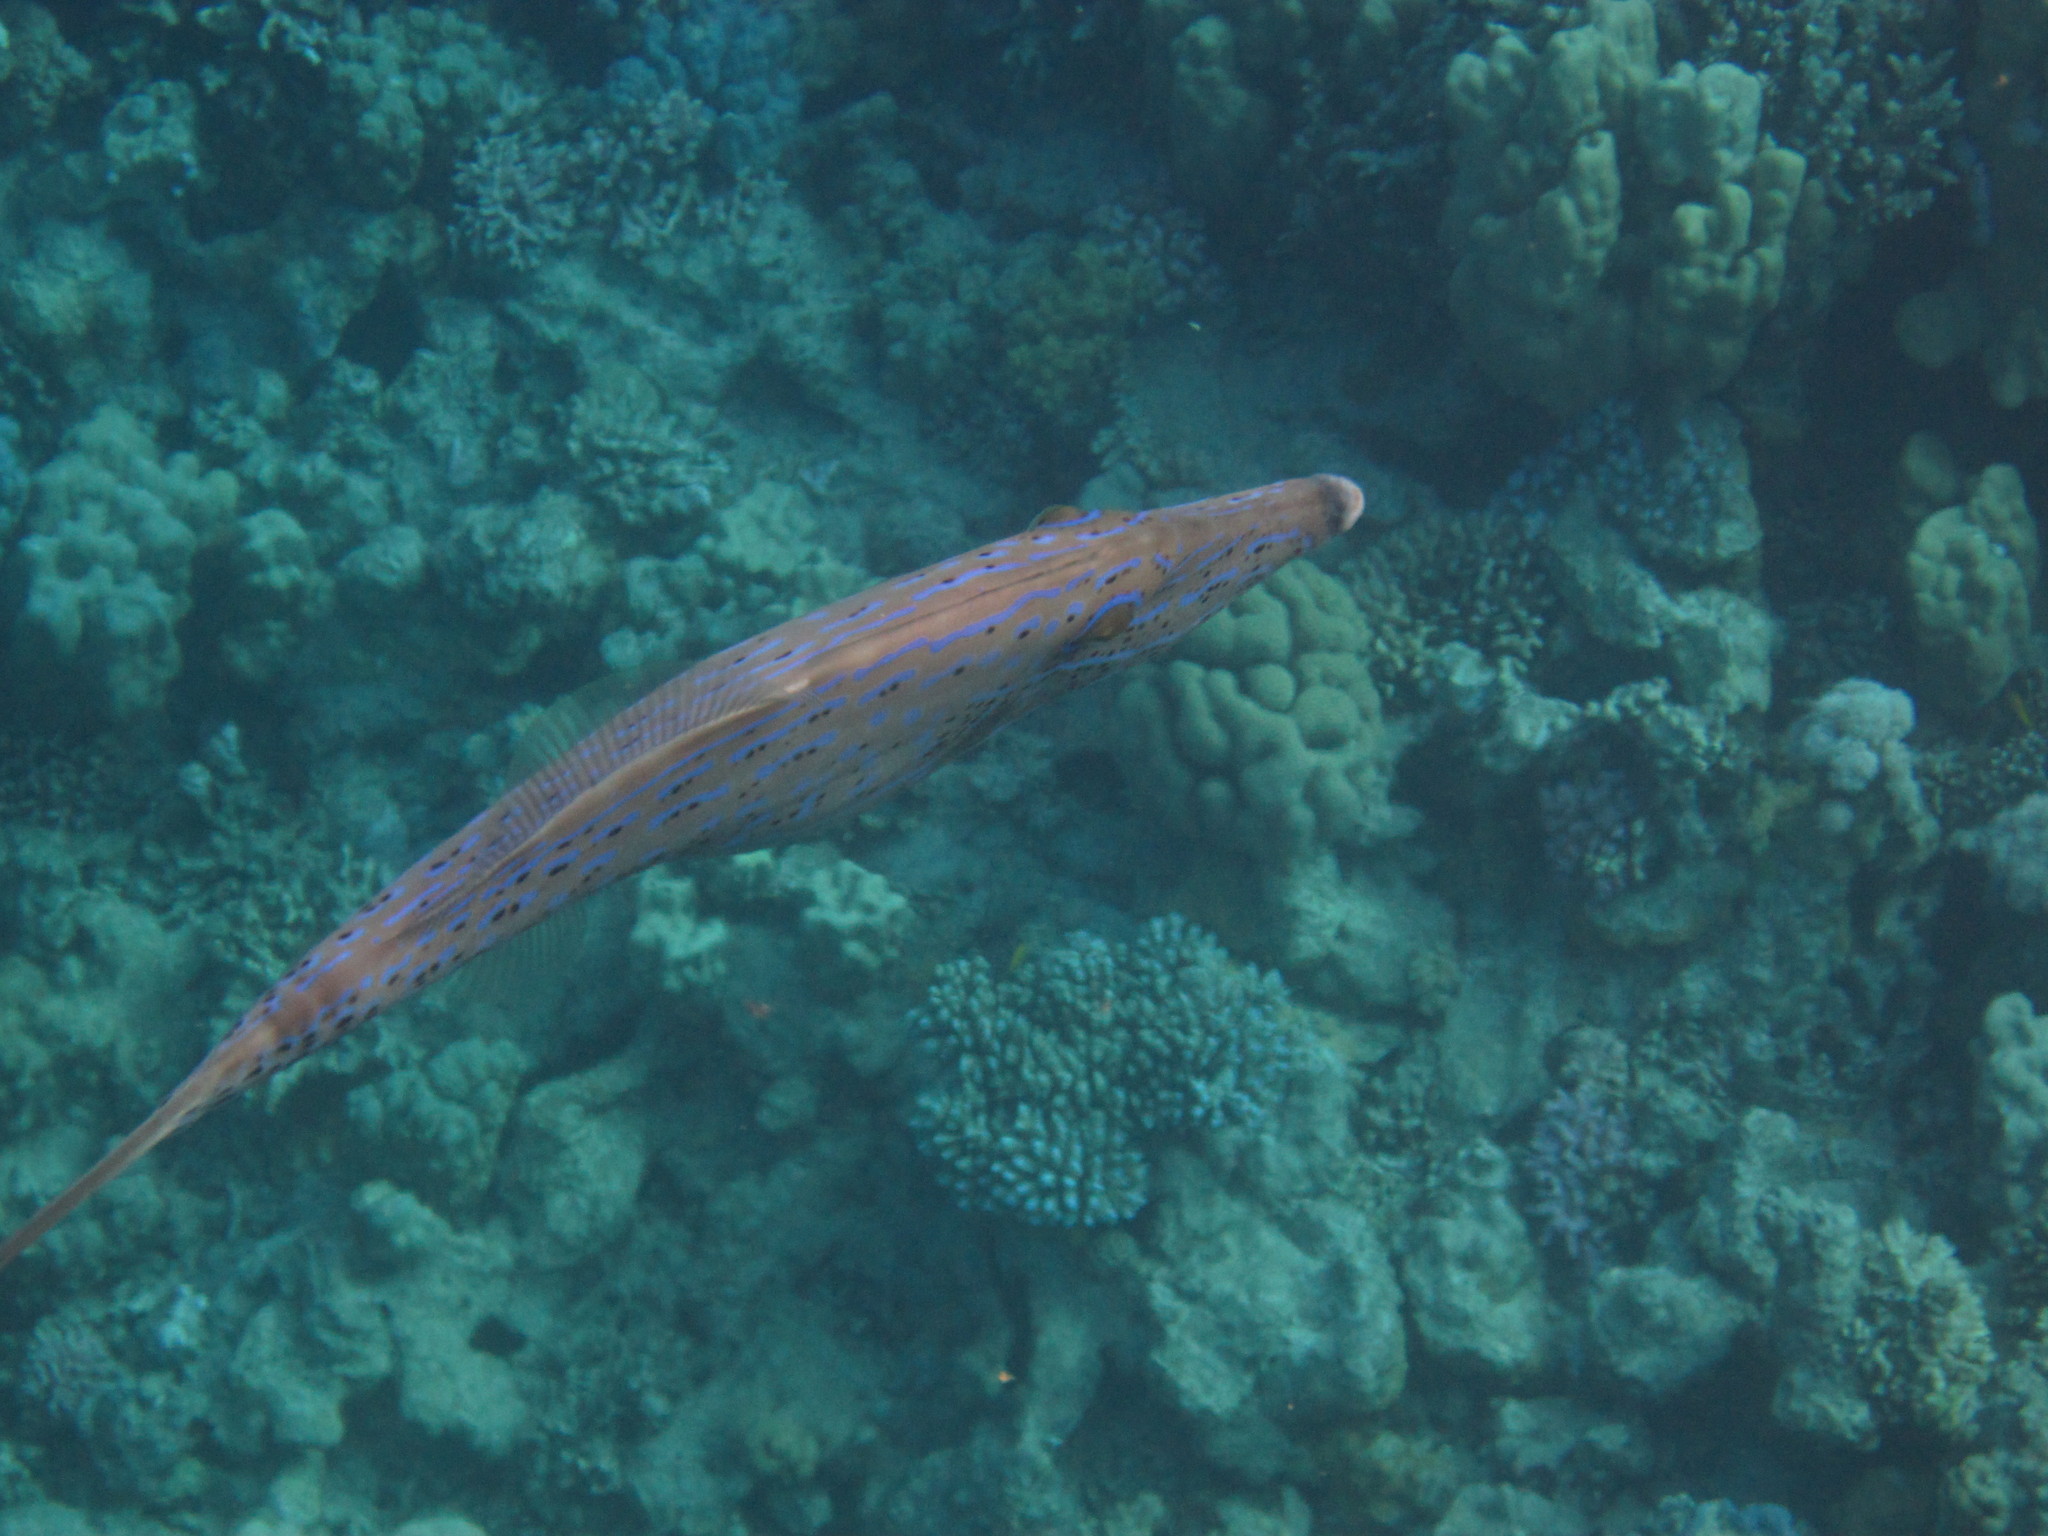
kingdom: Animalia
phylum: Chordata
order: Tetraodontiformes
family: Monacanthidae
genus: Aluterus
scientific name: Aluterus scriptus
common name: Scribbled leatherjacket filefish
